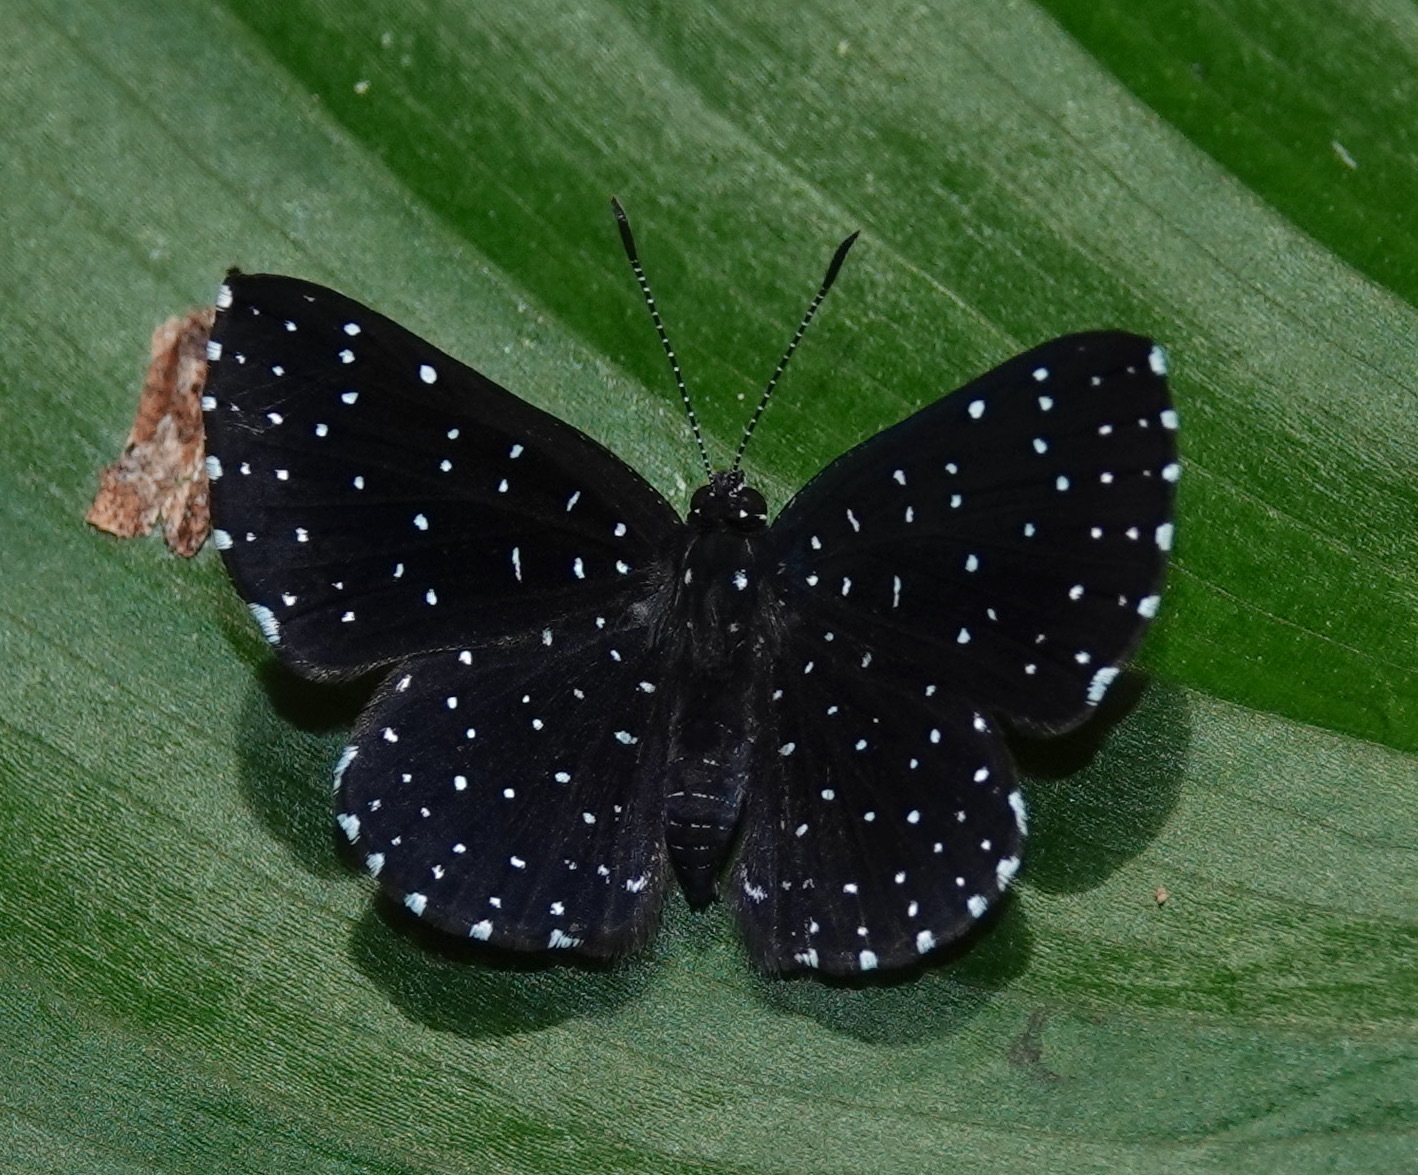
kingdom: Animalia
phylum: Arthropoda
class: Insecta
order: Lepidoptera
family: Riodinidae
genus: Echydna
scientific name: Echydna punctata
